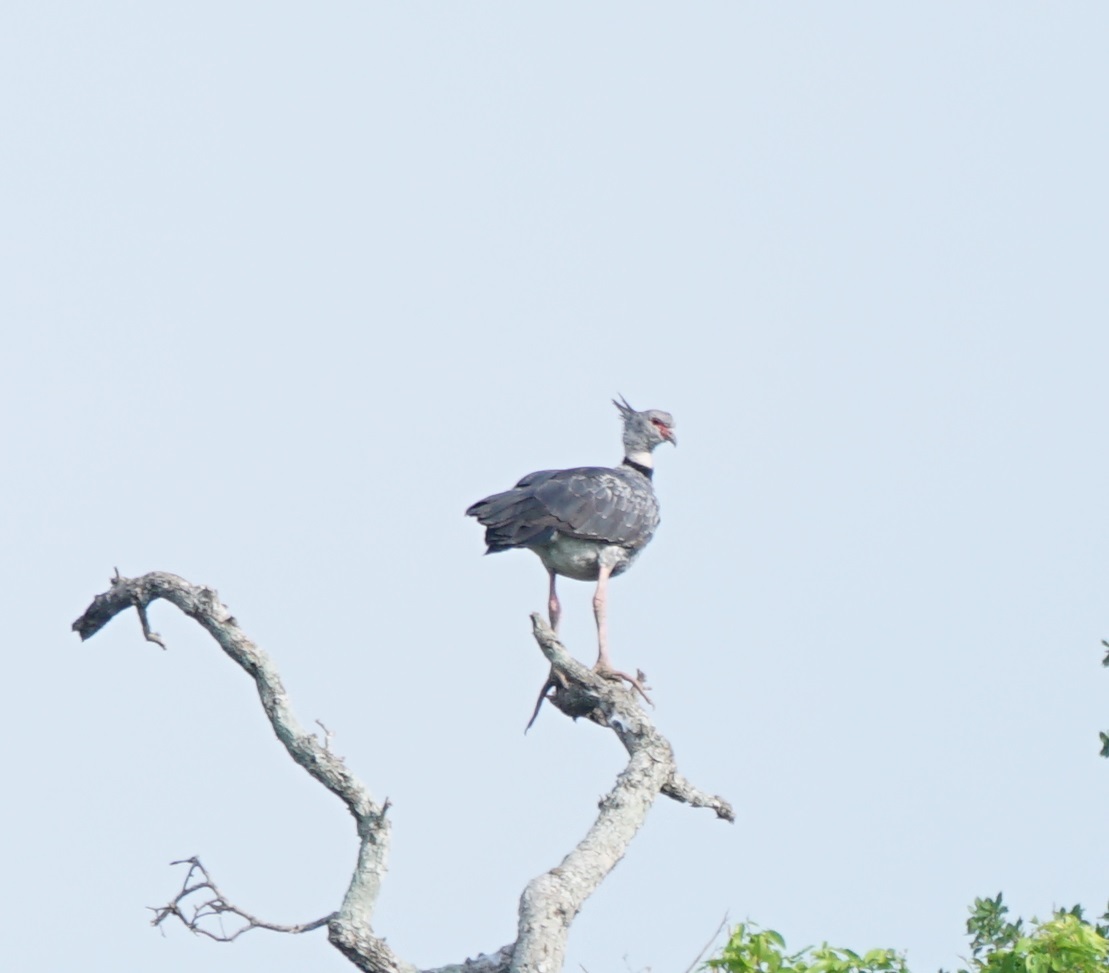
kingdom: Animalia
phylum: Chordata
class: Aves
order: Anseriformes
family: Anhimidae
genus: Chauna
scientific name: Chauna torquata
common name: Southern screamer
